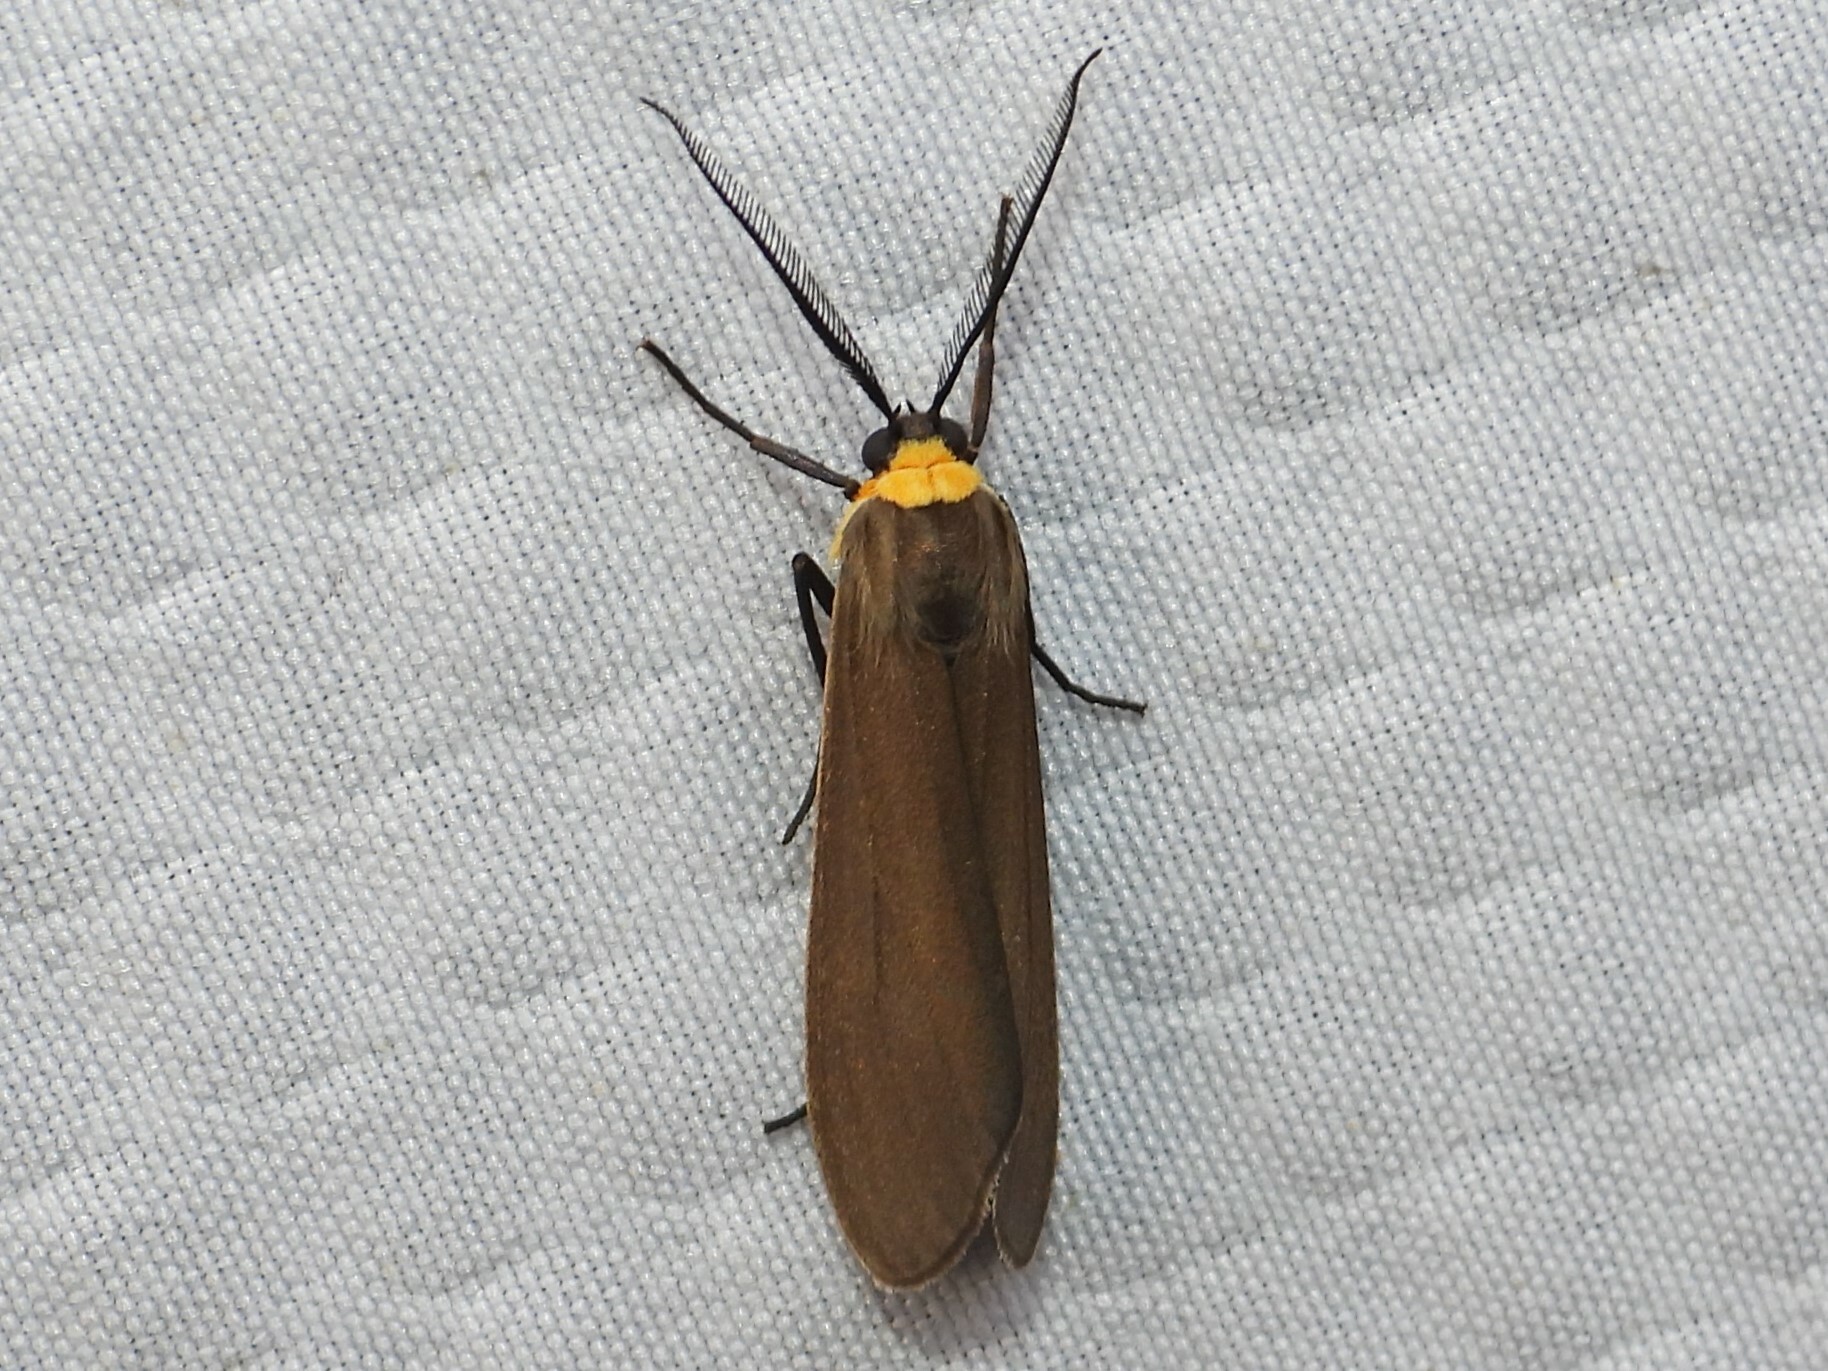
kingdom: Animalia
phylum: Arthropoda
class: Insecta
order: Lepidoptera
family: Erebidae
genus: Cisseps
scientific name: Cisseps fulvicollis
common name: Yellow-collared scape moth
